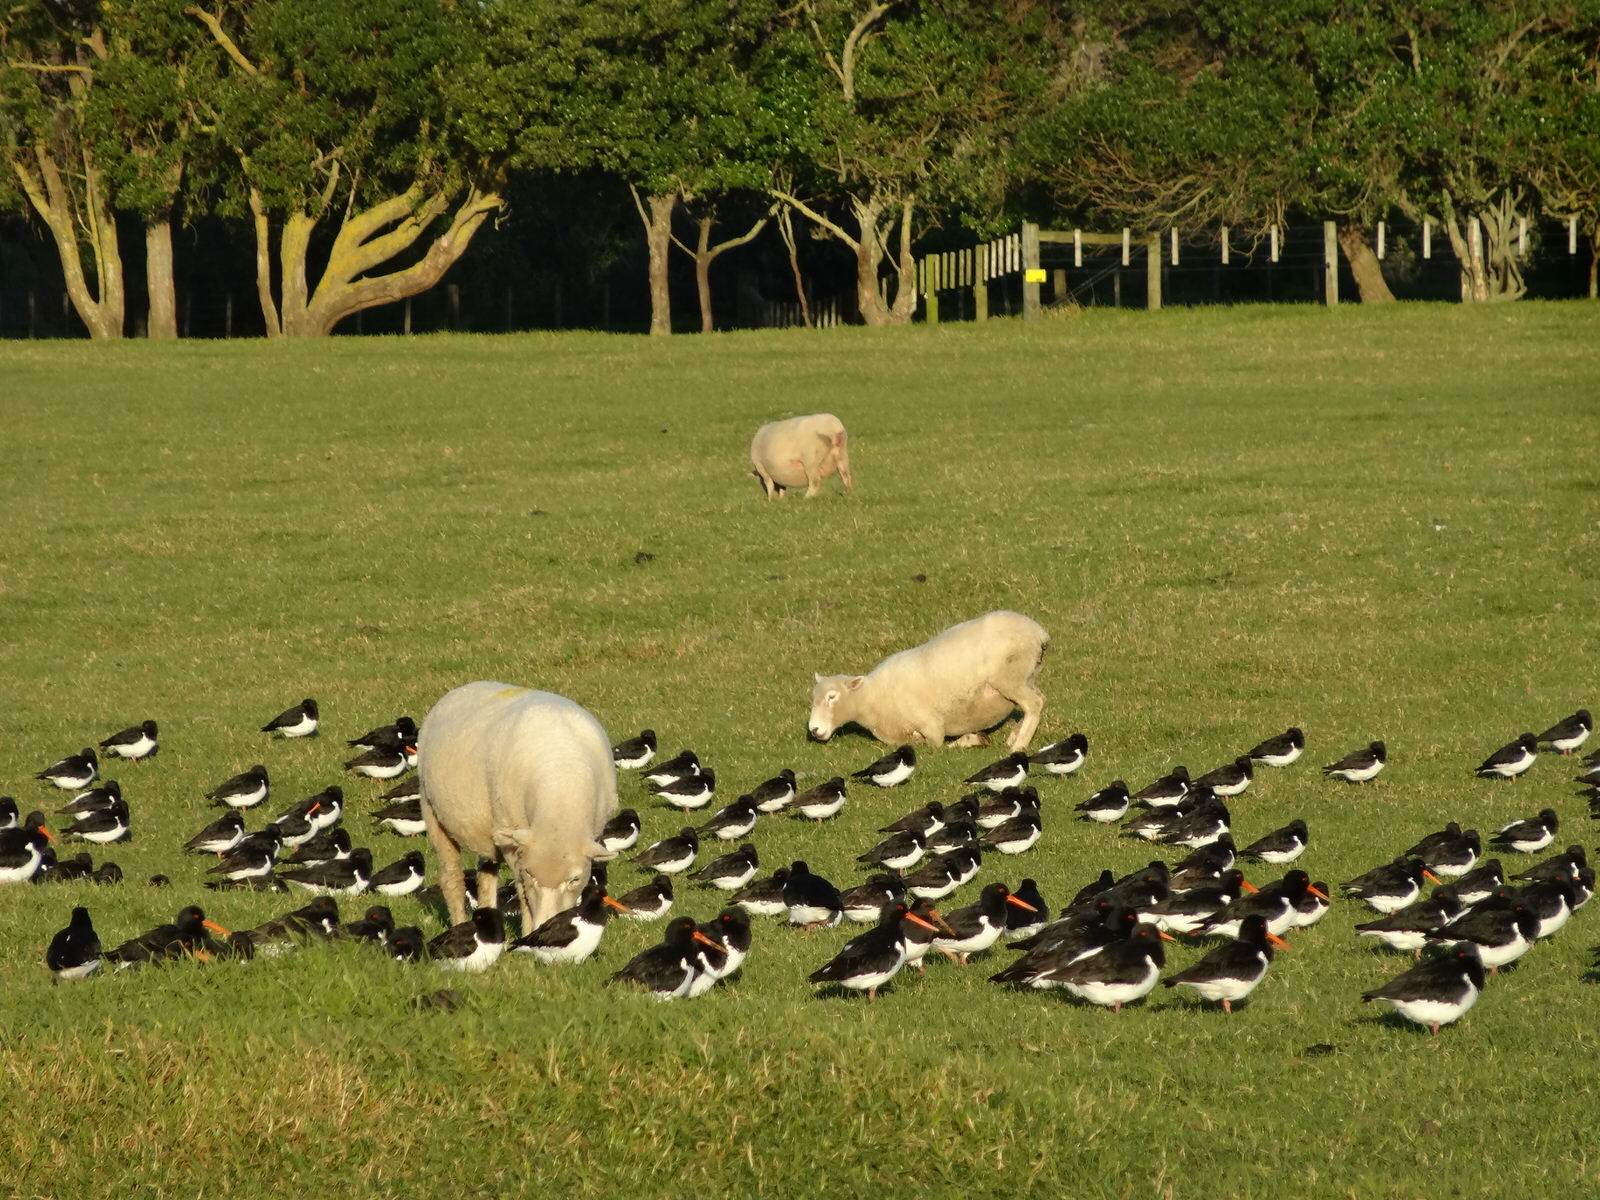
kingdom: Animalia
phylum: Chordata
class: Aves
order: Charadriiformes
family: Haematopodidae
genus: Haematopus
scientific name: Haematopus finschi
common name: South island oystercatcher
